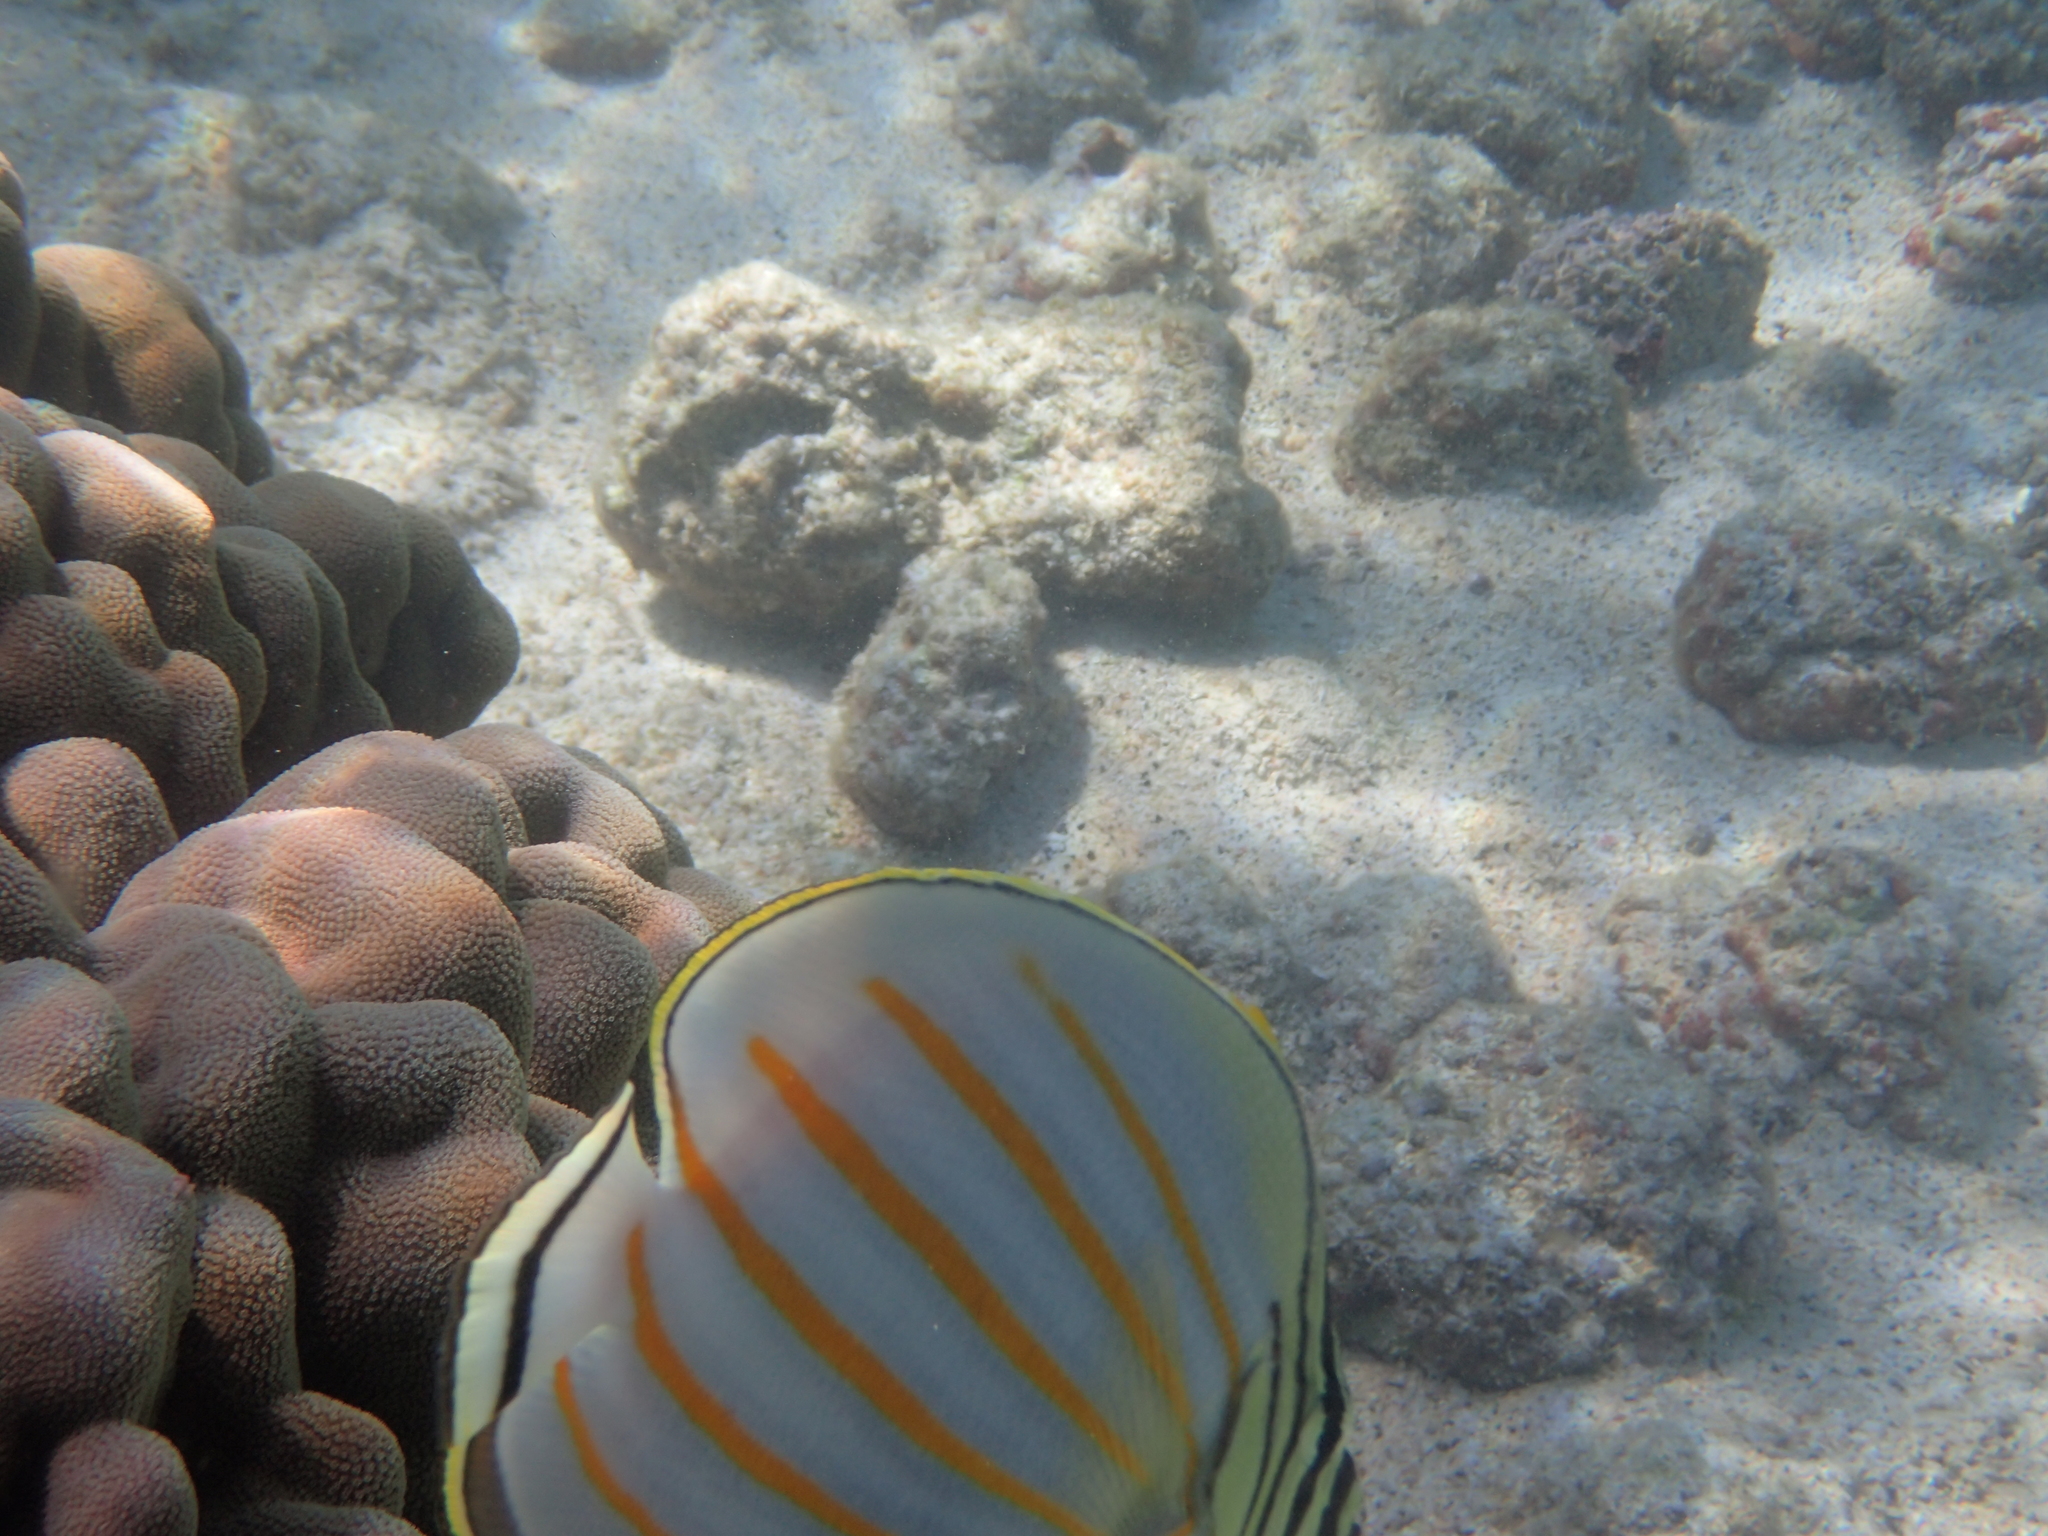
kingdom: Animalia
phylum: Chordata
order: Perciformes
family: Chaetodontidae
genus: Chaetodon
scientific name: Chaetodon ornatissimus
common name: Ornate butterflyfish
